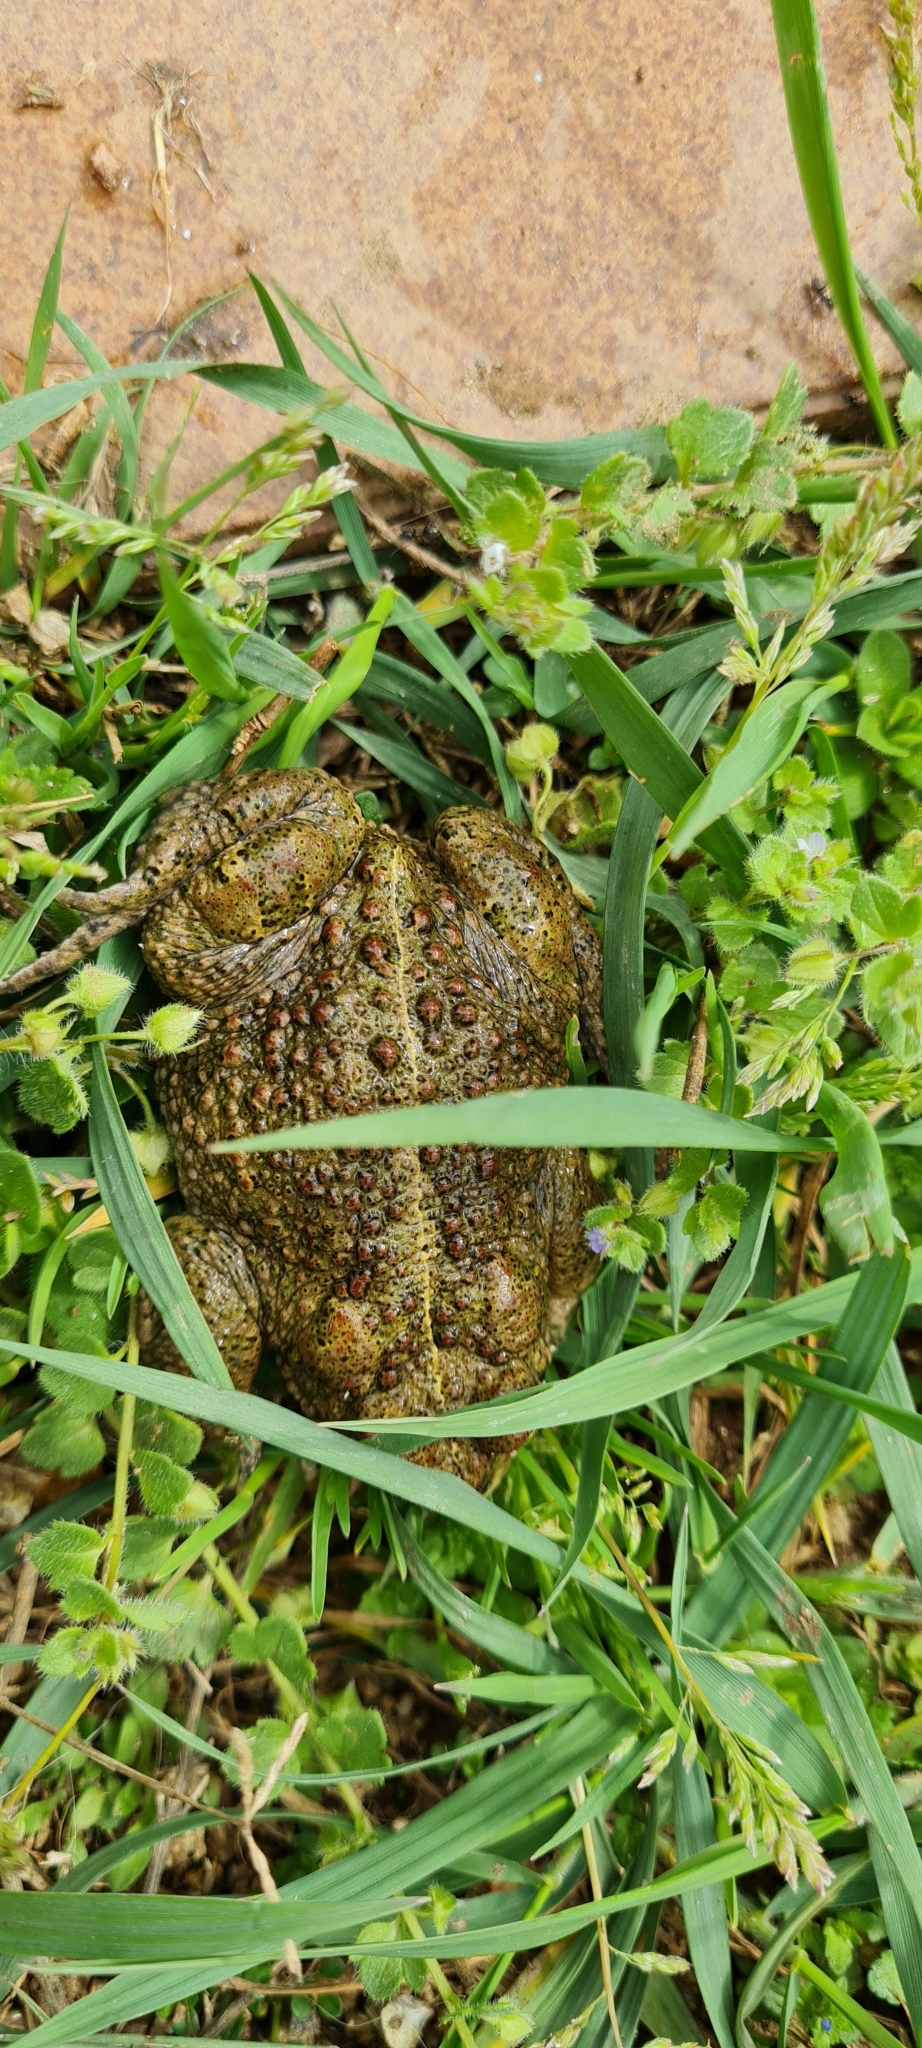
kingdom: Animalia
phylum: Chordata
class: Amphibia
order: Anura
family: Bufonidae
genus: Epidalea
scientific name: Epidalea calamita
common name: Natterjack toad
